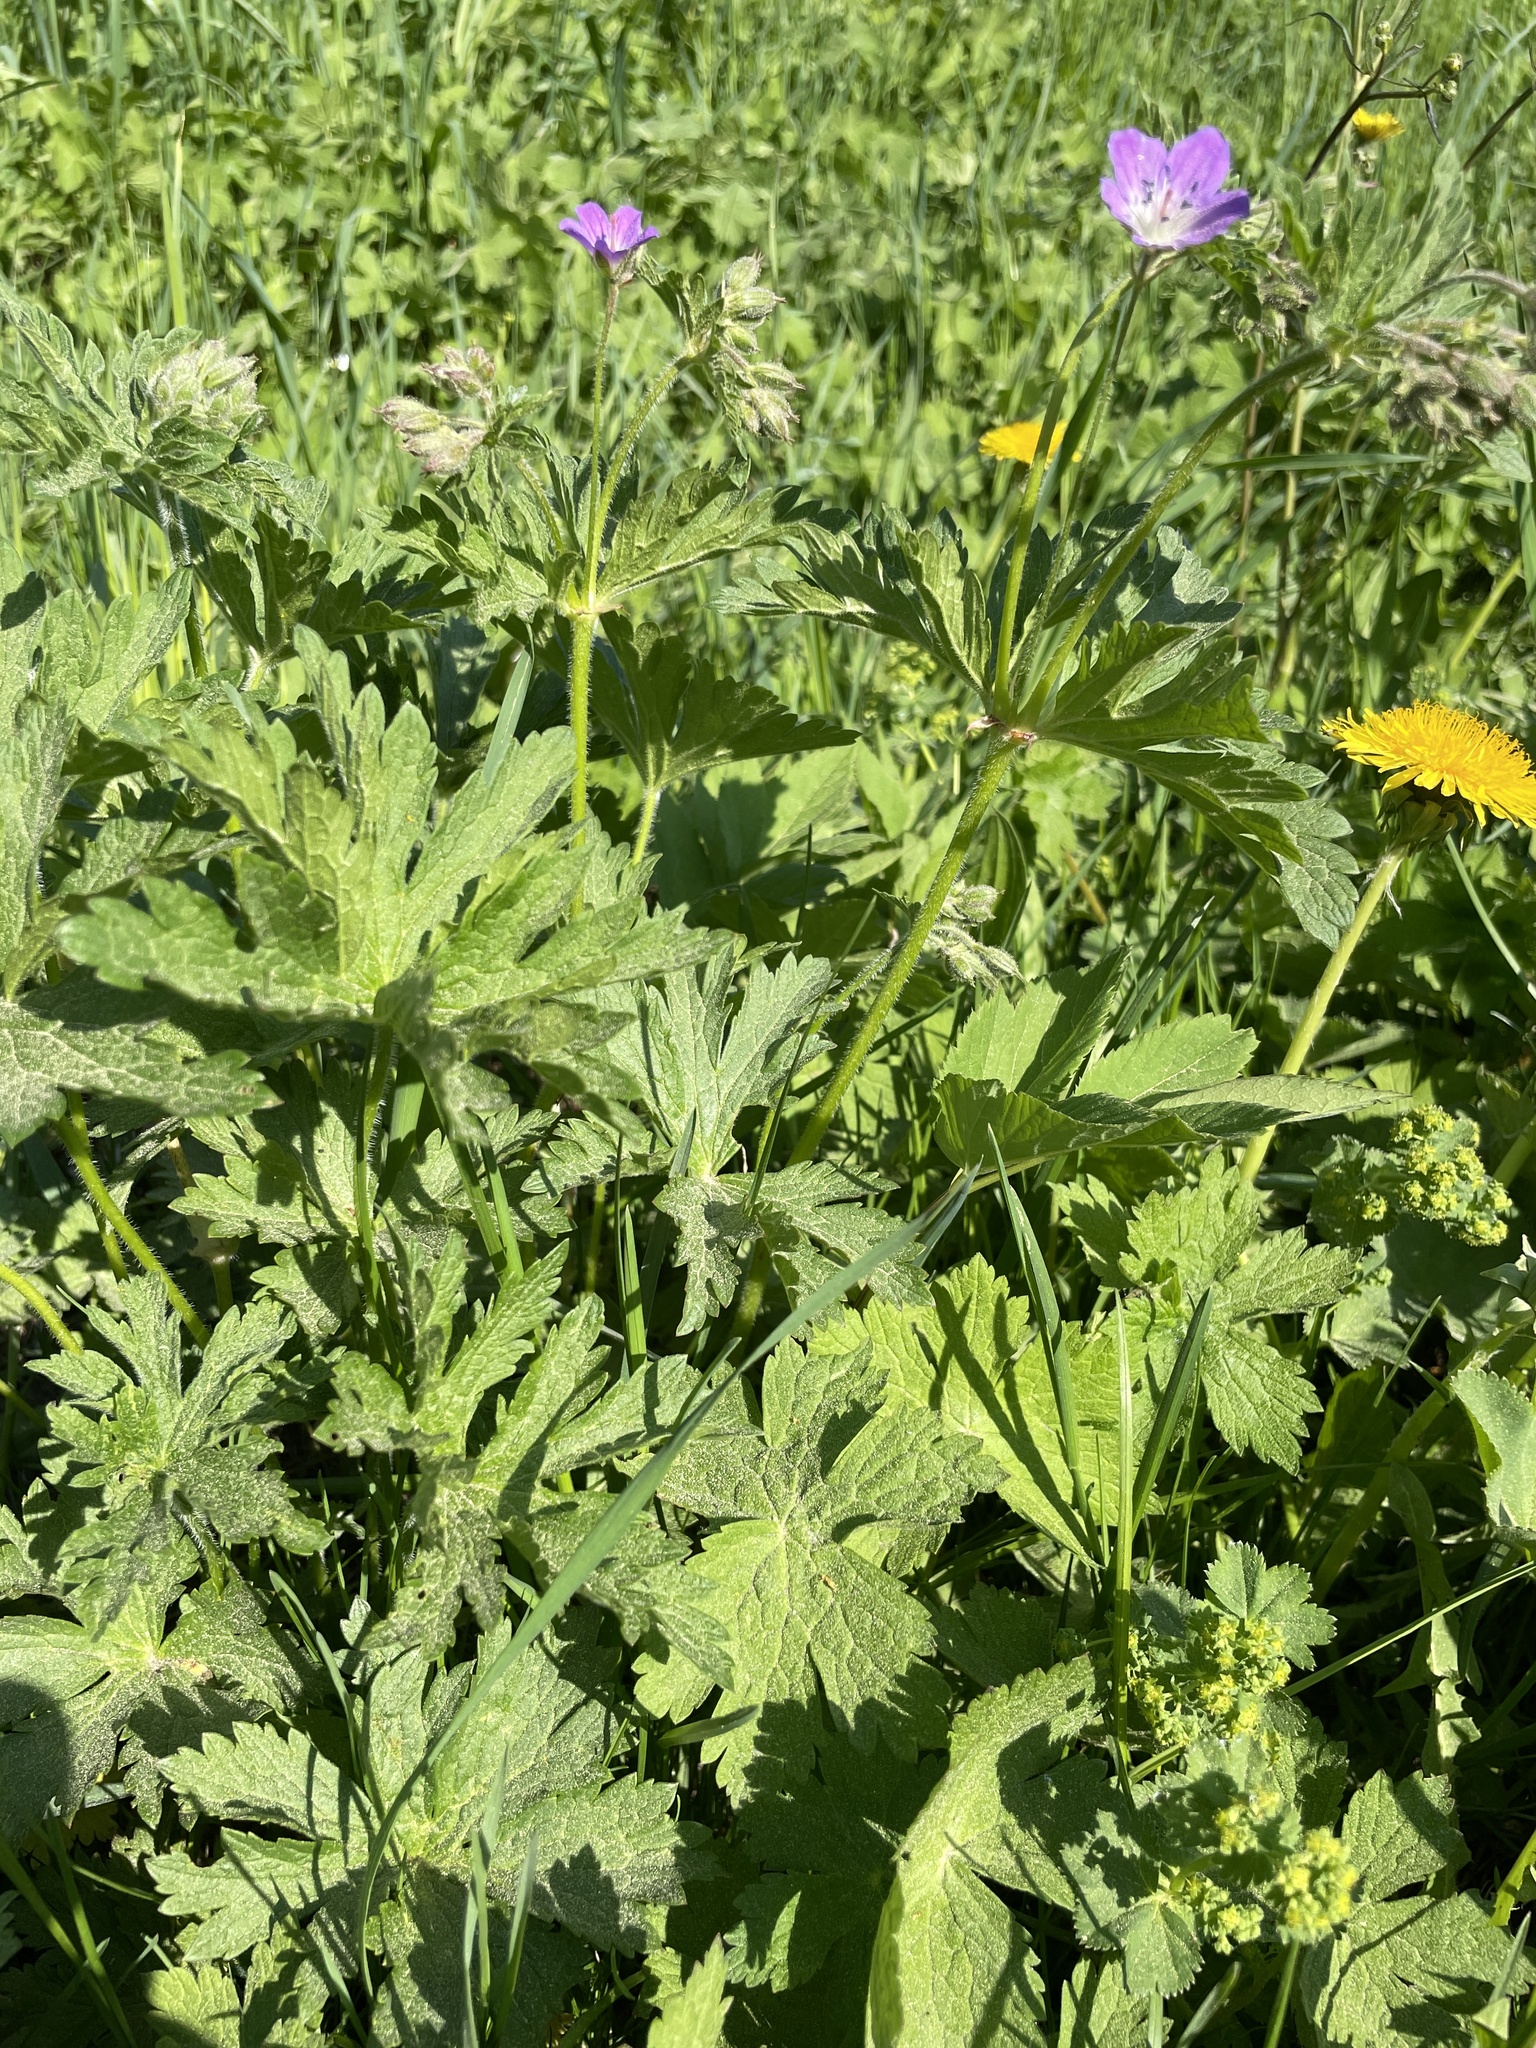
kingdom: Plantae
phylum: Tracheophyta
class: Magnoliopsida
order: Geraniales
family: Geraniaceae
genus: Geranium
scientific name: Geranium sylvaticum
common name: Wood crane's-bill
